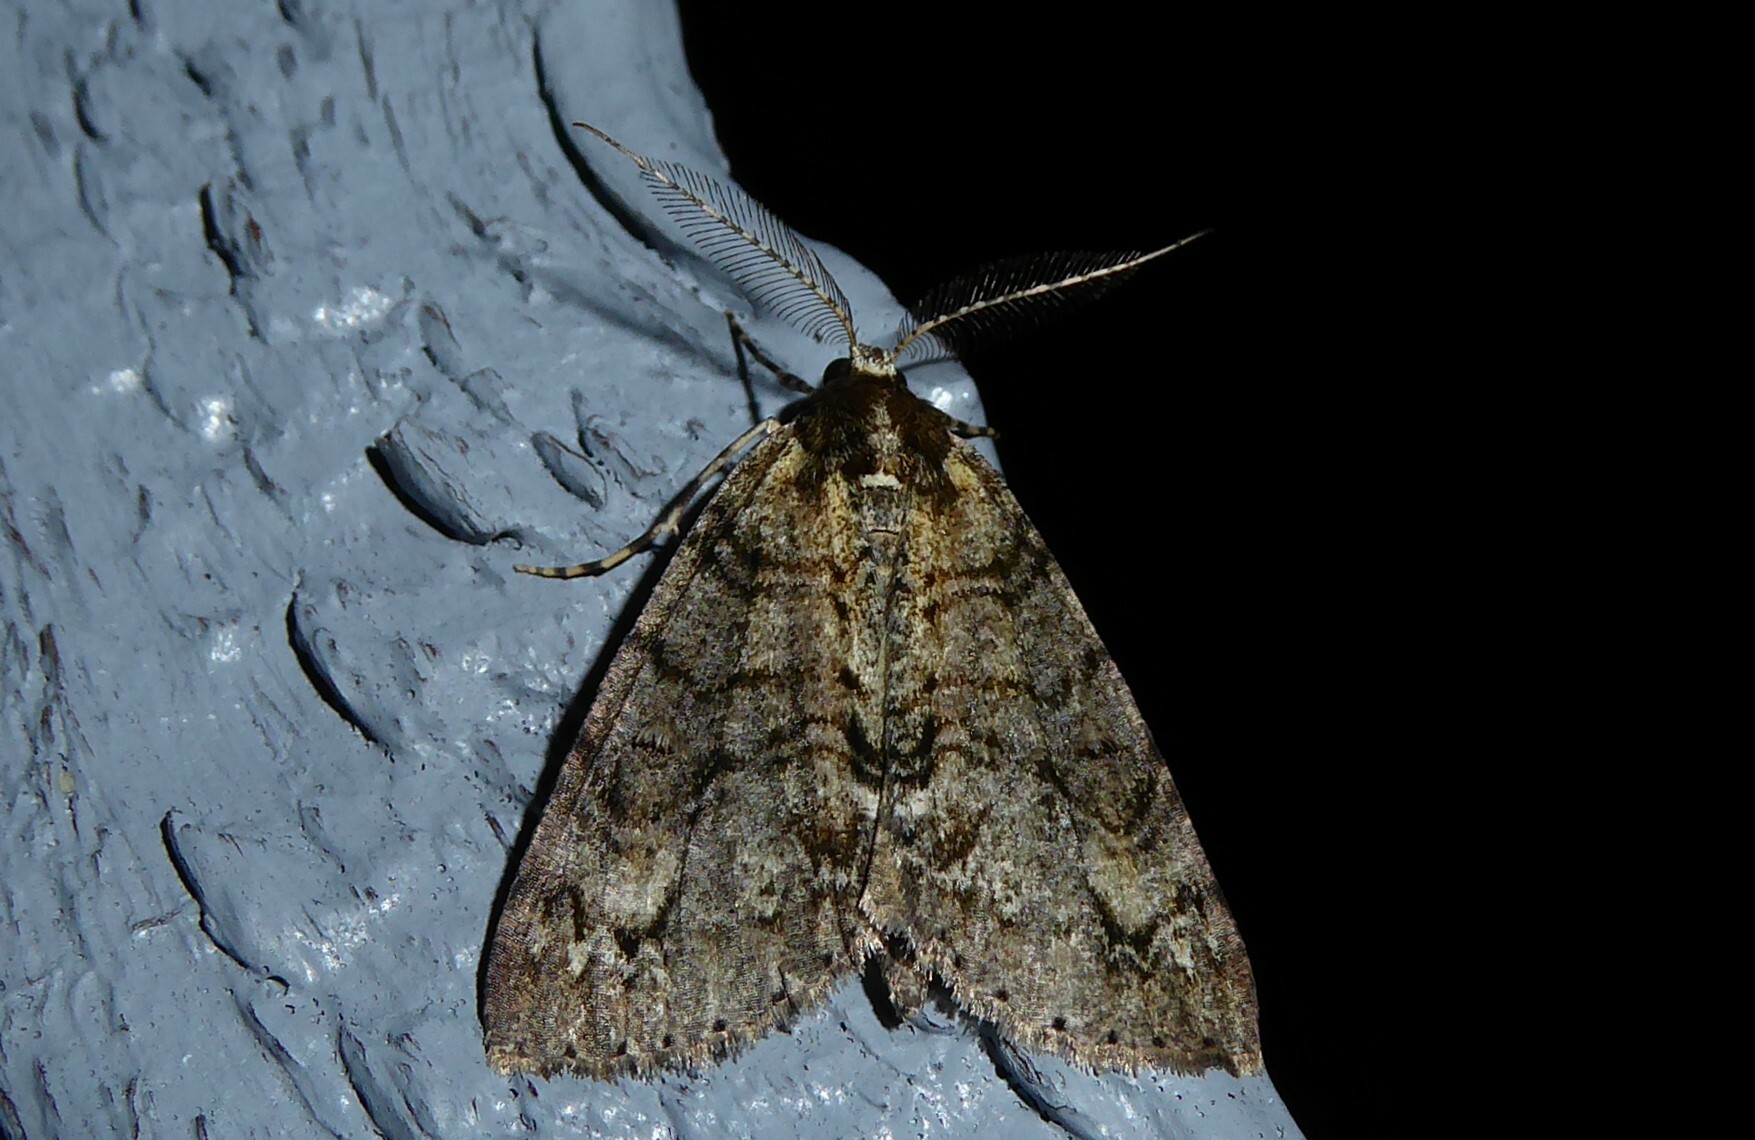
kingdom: Animalia
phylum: Arthropoda
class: Insecta
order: Lepidoptera
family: Geometridae
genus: Pseudocoremia
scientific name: Pseudocoremia suavis
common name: Common forest looper
